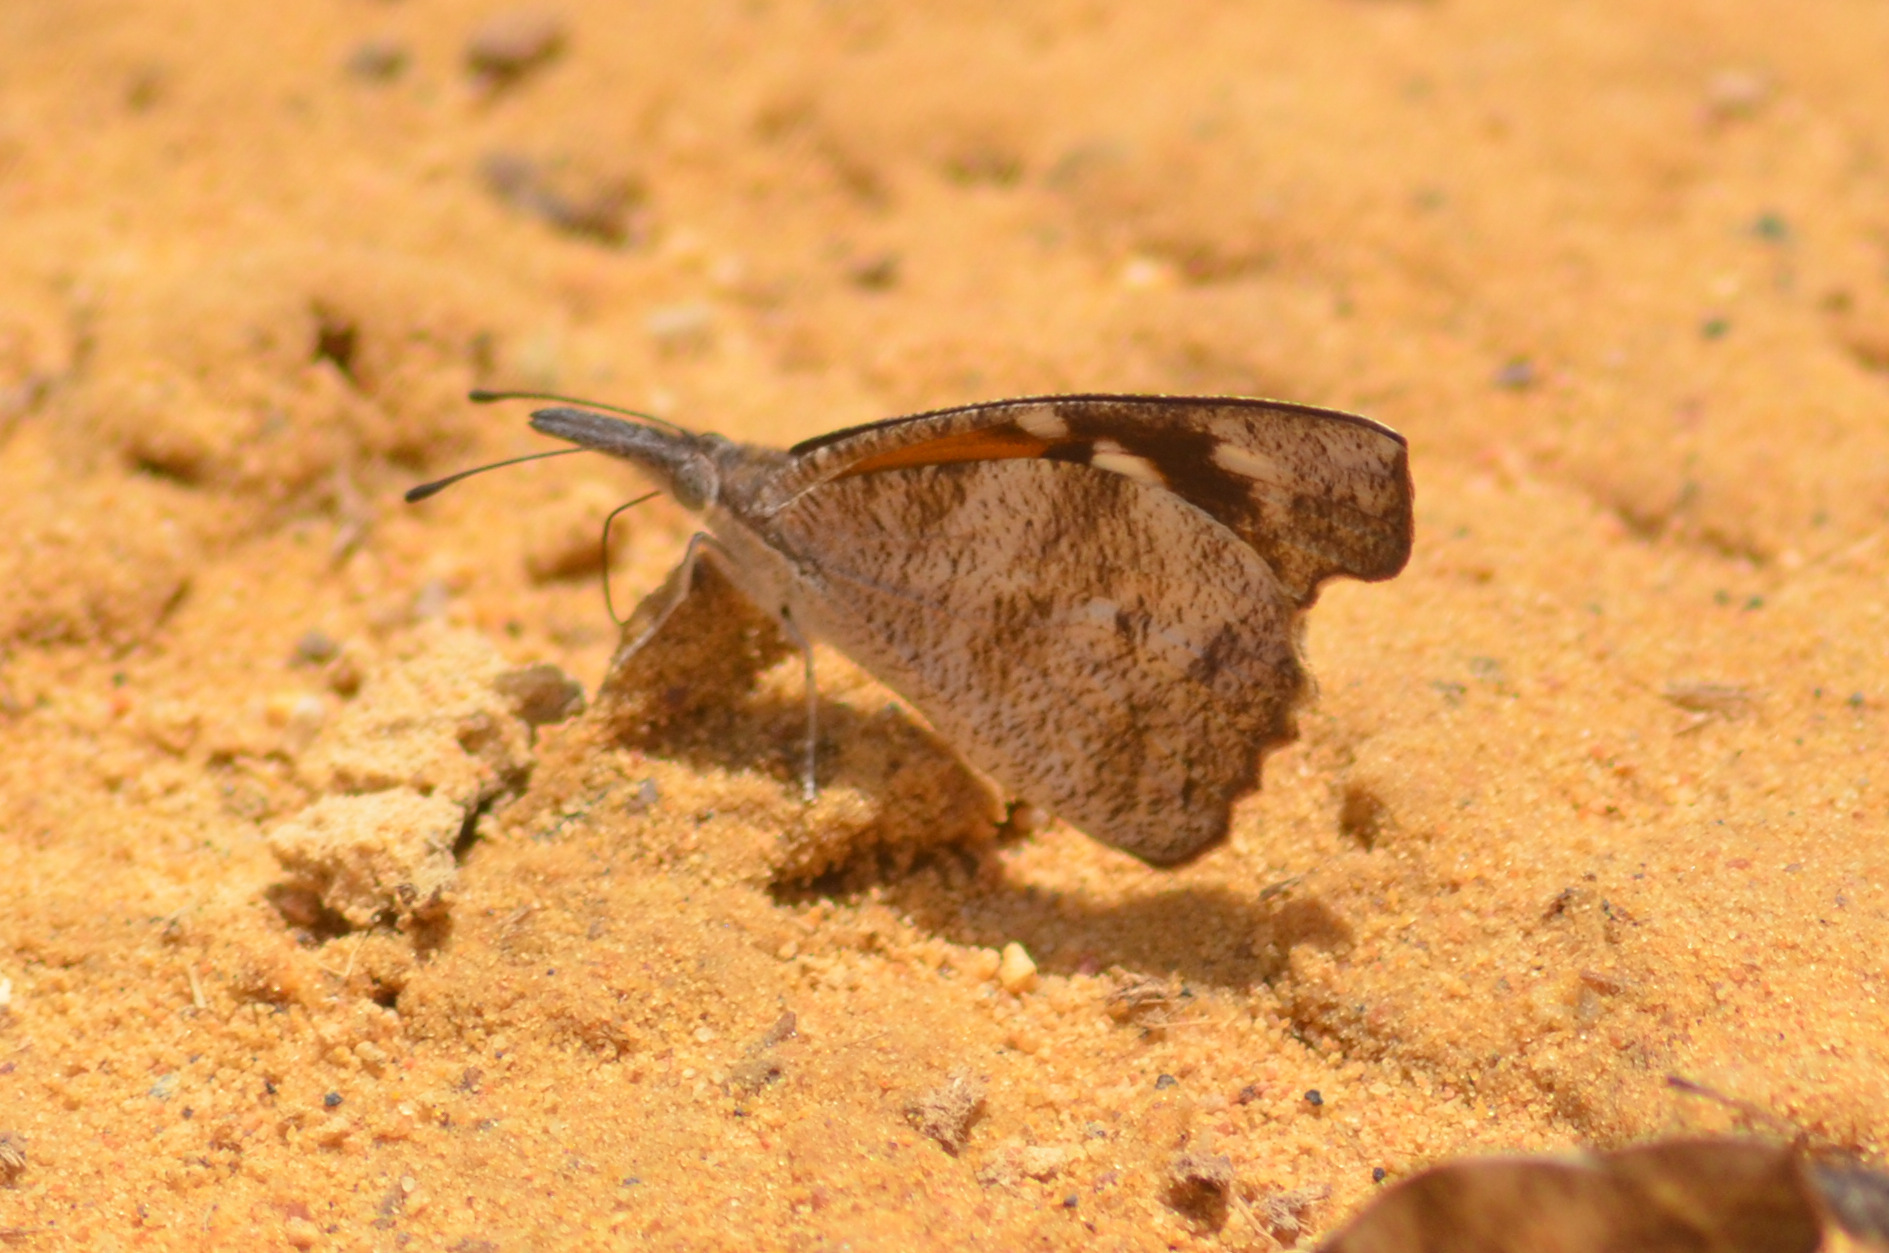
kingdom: Animalia
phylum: Arthropoda
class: Insecta
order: Lepidoptera
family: Nymphalidae
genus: Libytheana
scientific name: Libytheana carinenta
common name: American snout
